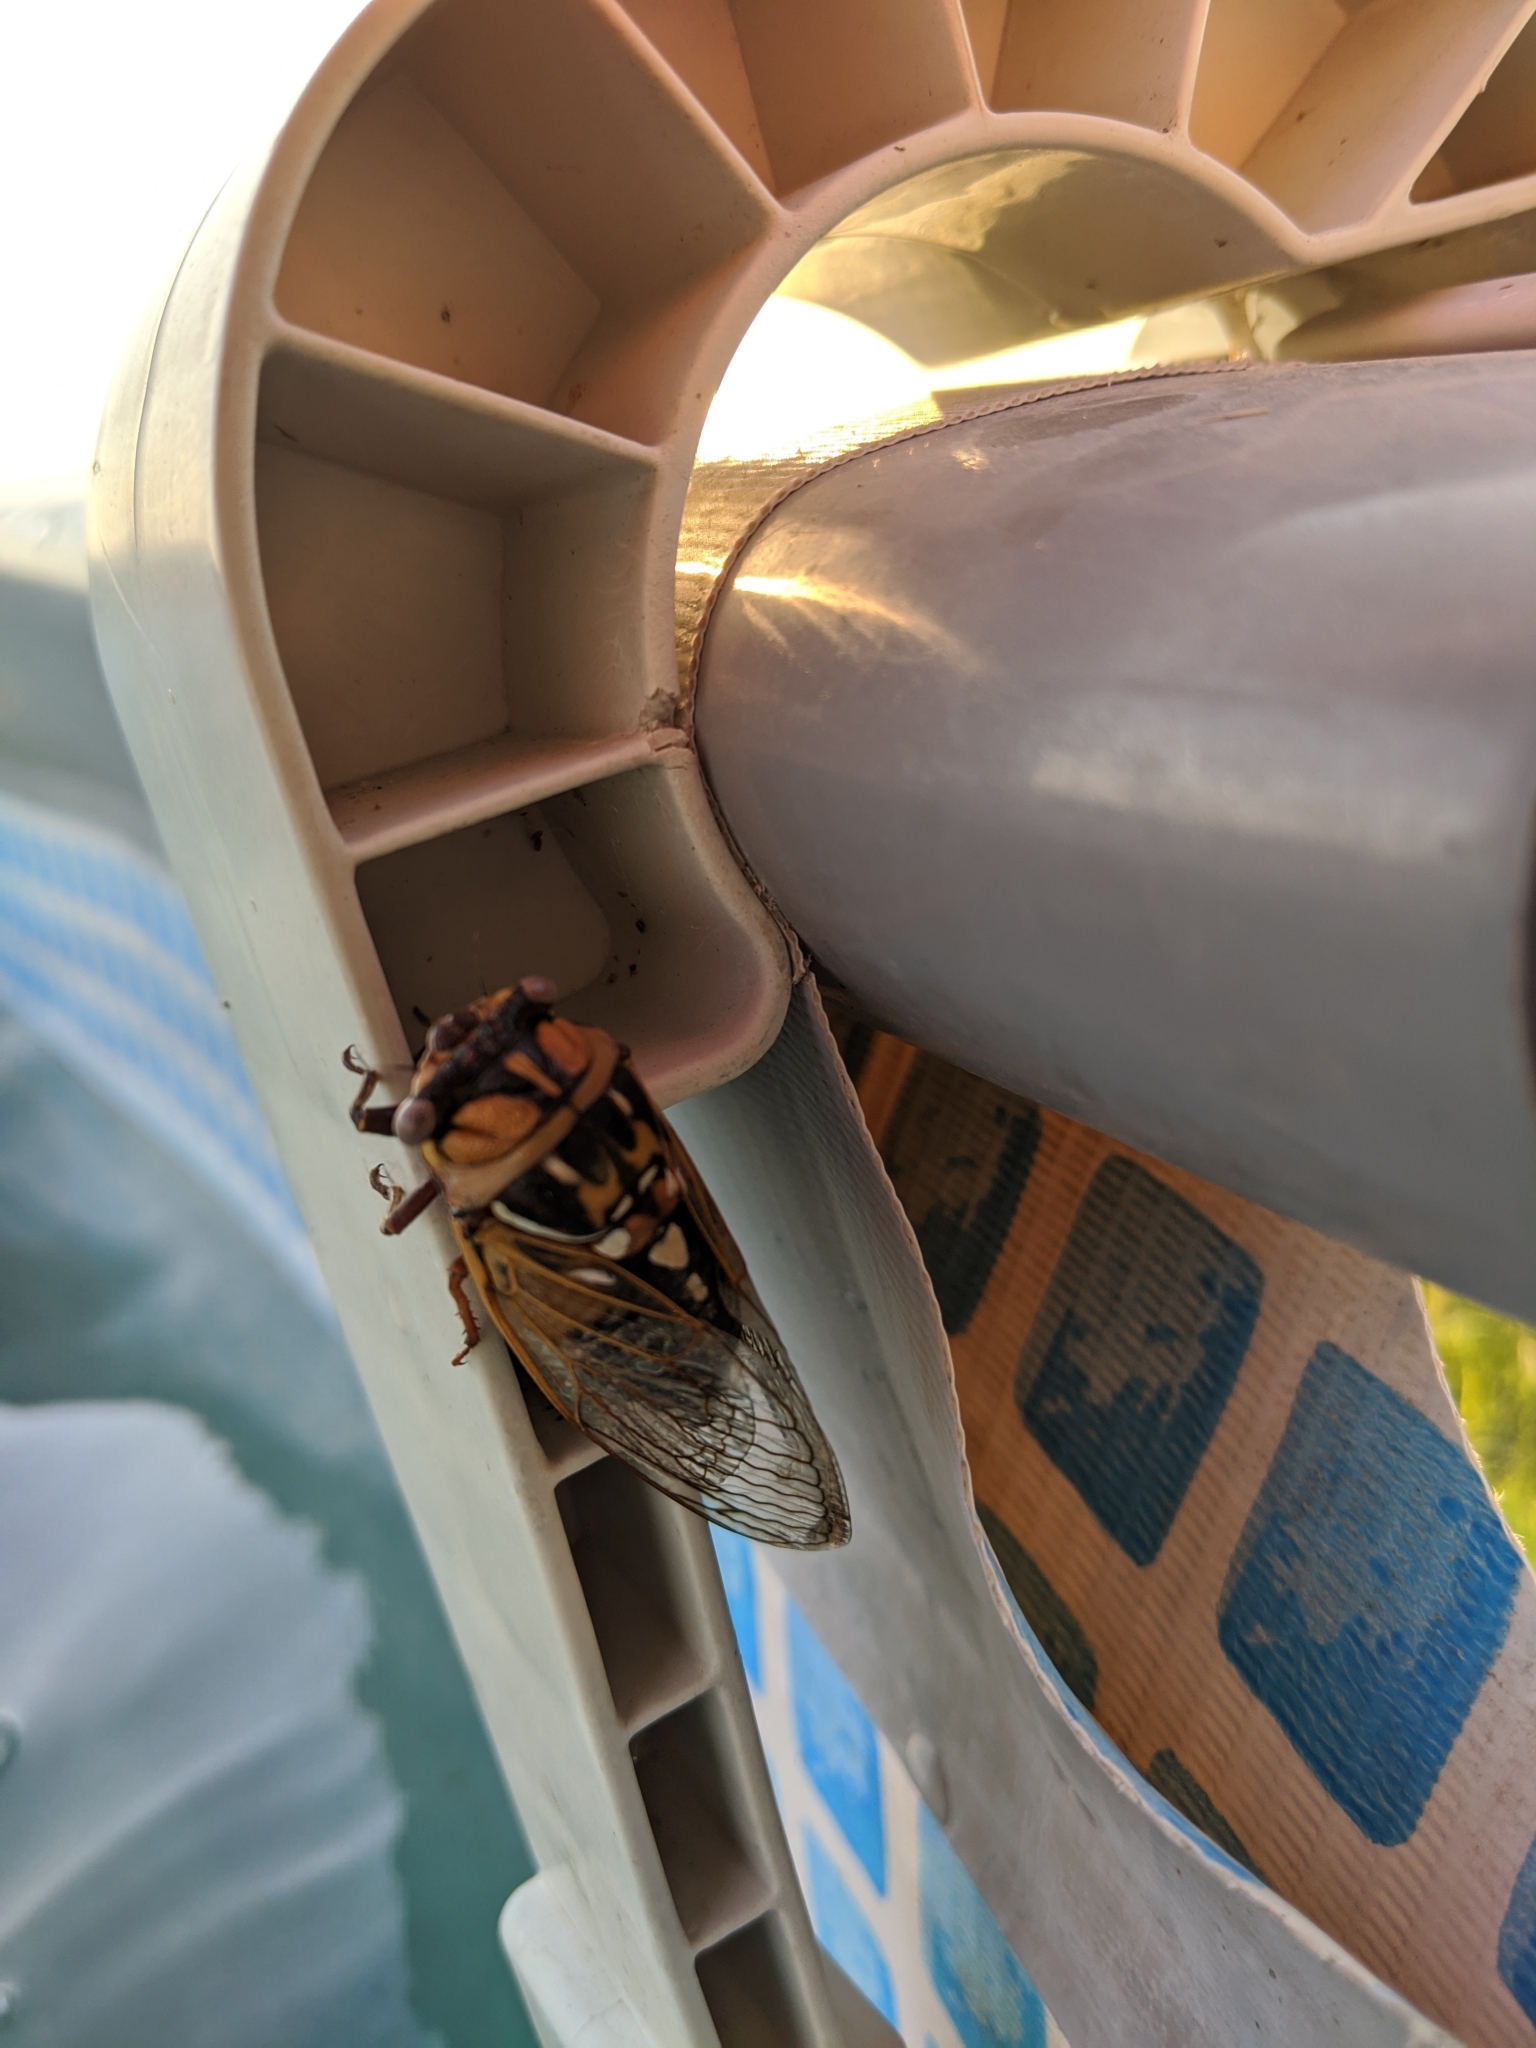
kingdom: Animalia
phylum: Arthropoda
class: Insecta
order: Hemiptera
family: Cicadidae
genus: Megatibicen
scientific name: Megatibicen dorsatus
